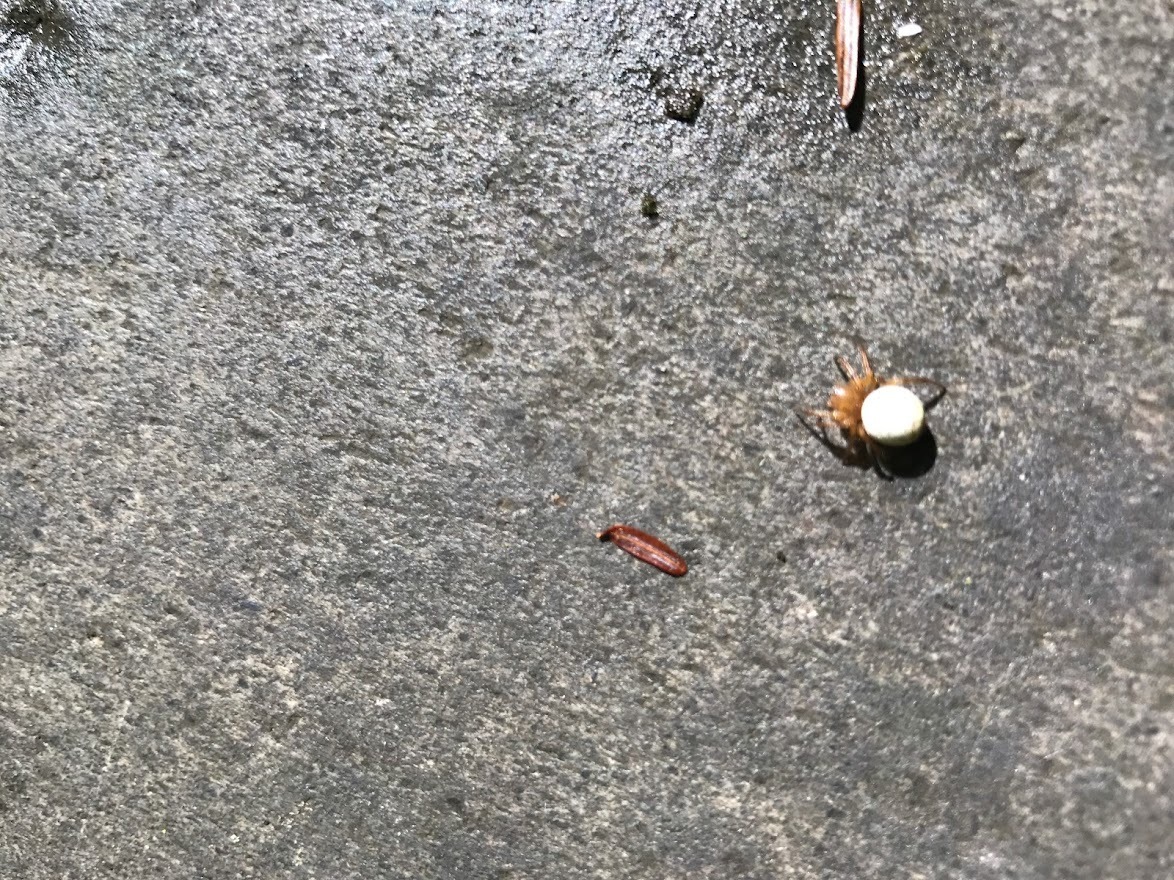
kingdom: Animalia
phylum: Arthropoda
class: Arachnida
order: Araneae
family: Araneidae
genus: Araniella
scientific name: Araniella displicata
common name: Sixspotted orb weaver
